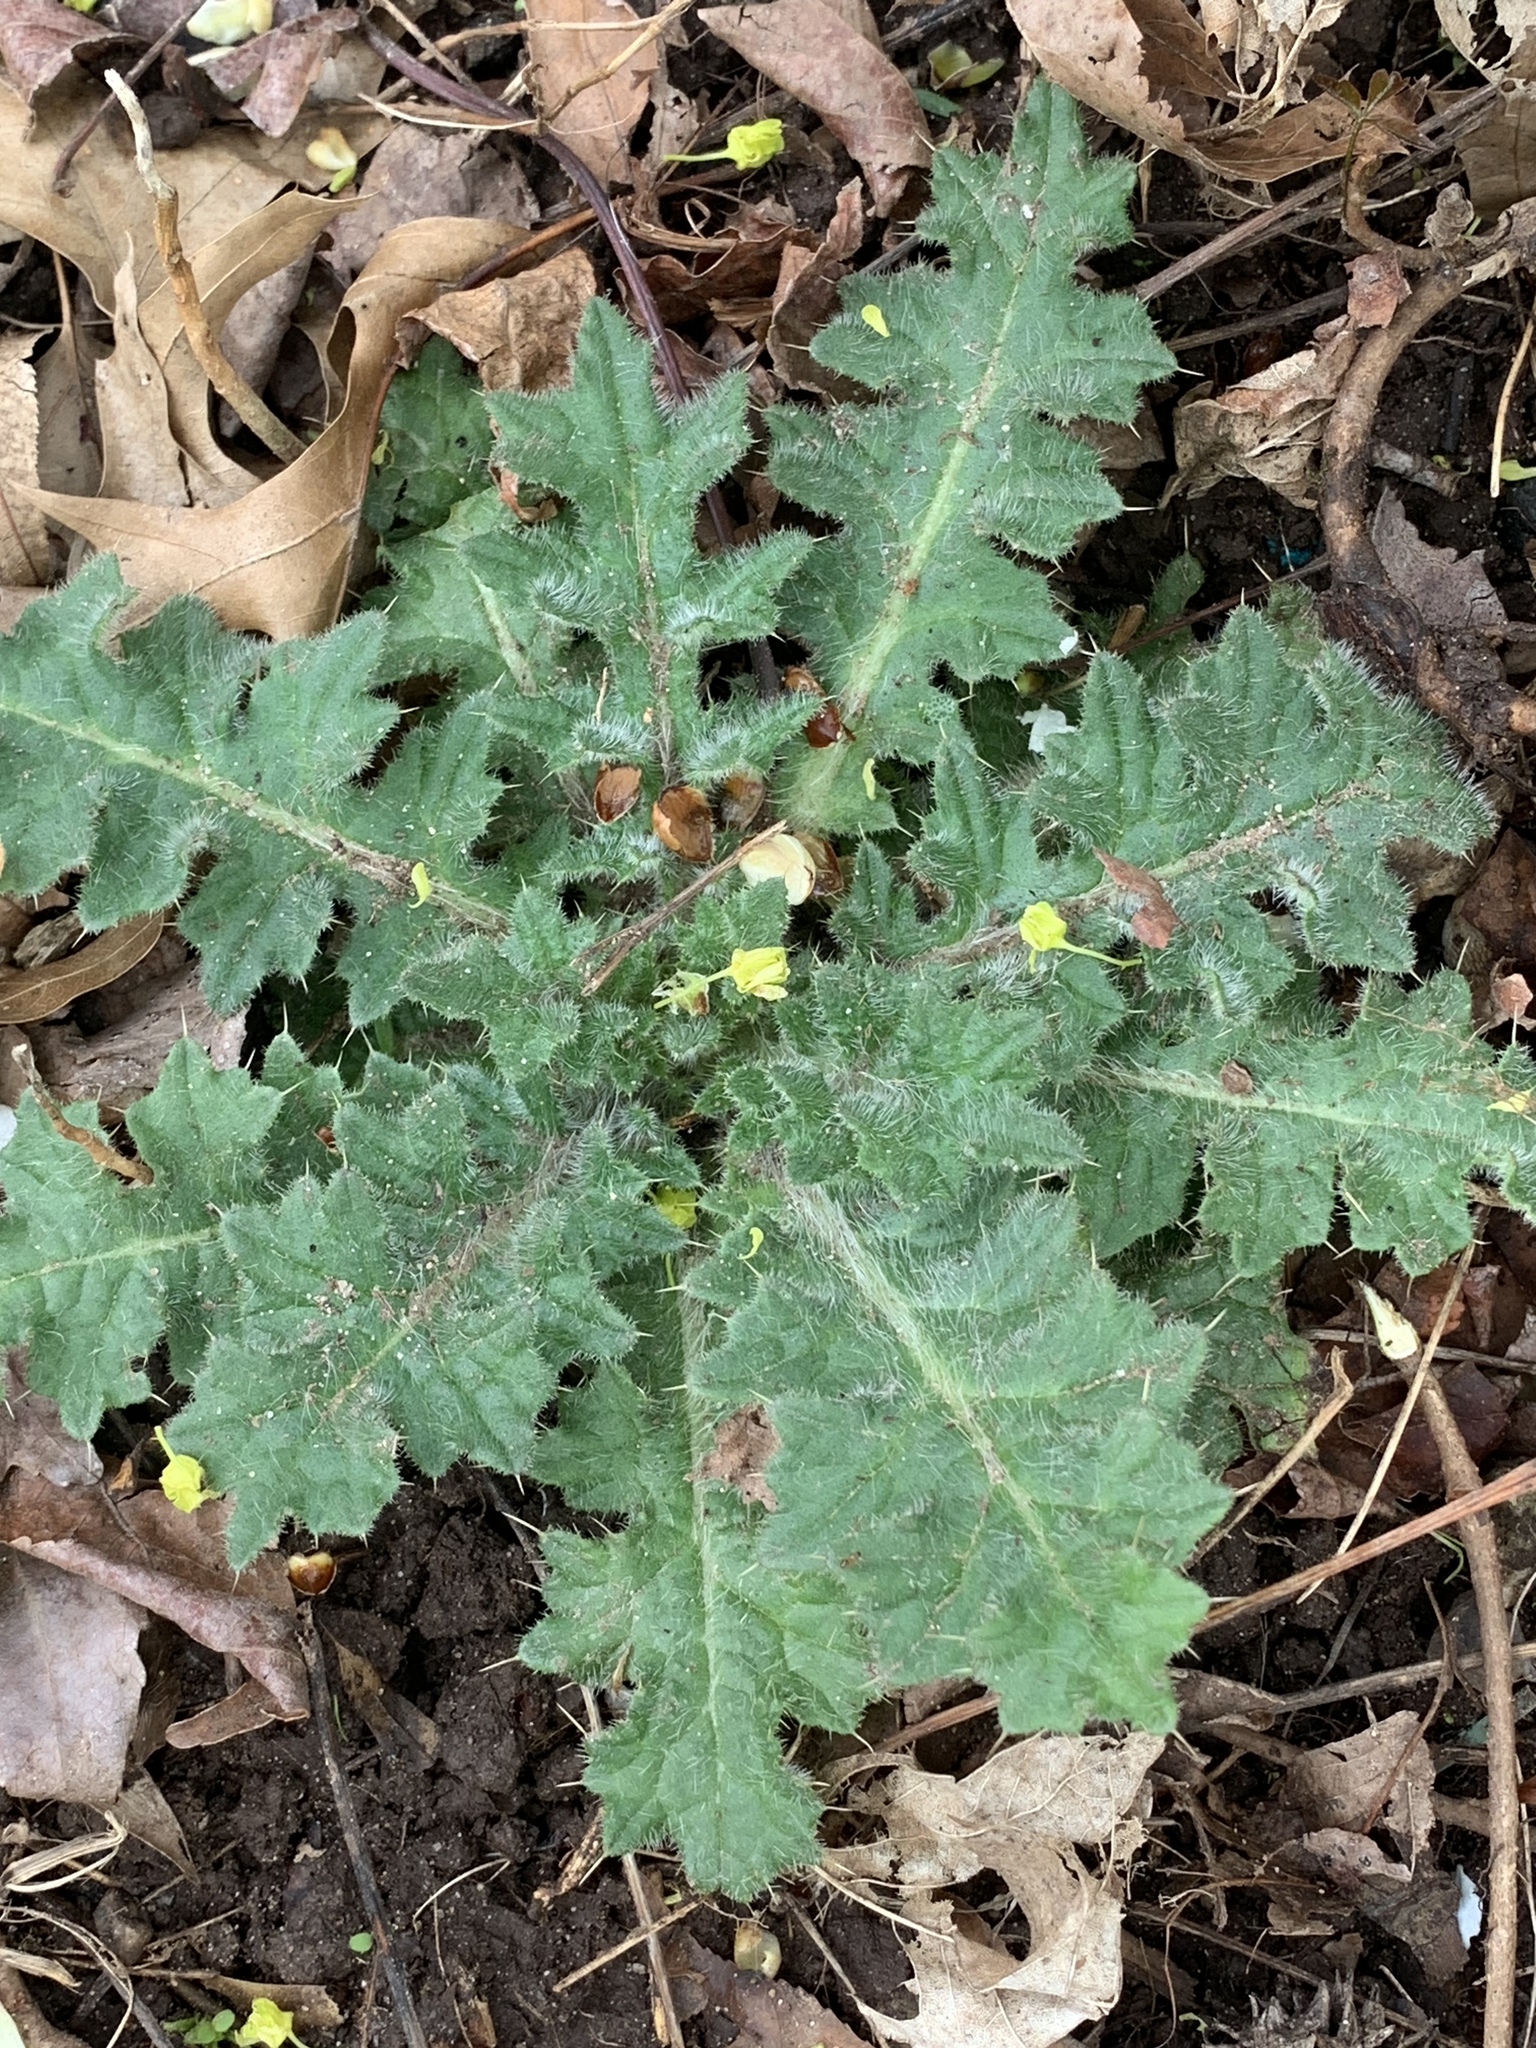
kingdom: Plantae
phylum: Tracheophyta
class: Magnoliopsida
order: Asterales
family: Asteraceae
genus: Cirsium
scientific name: Cirsium vulgare
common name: Bull thistle
